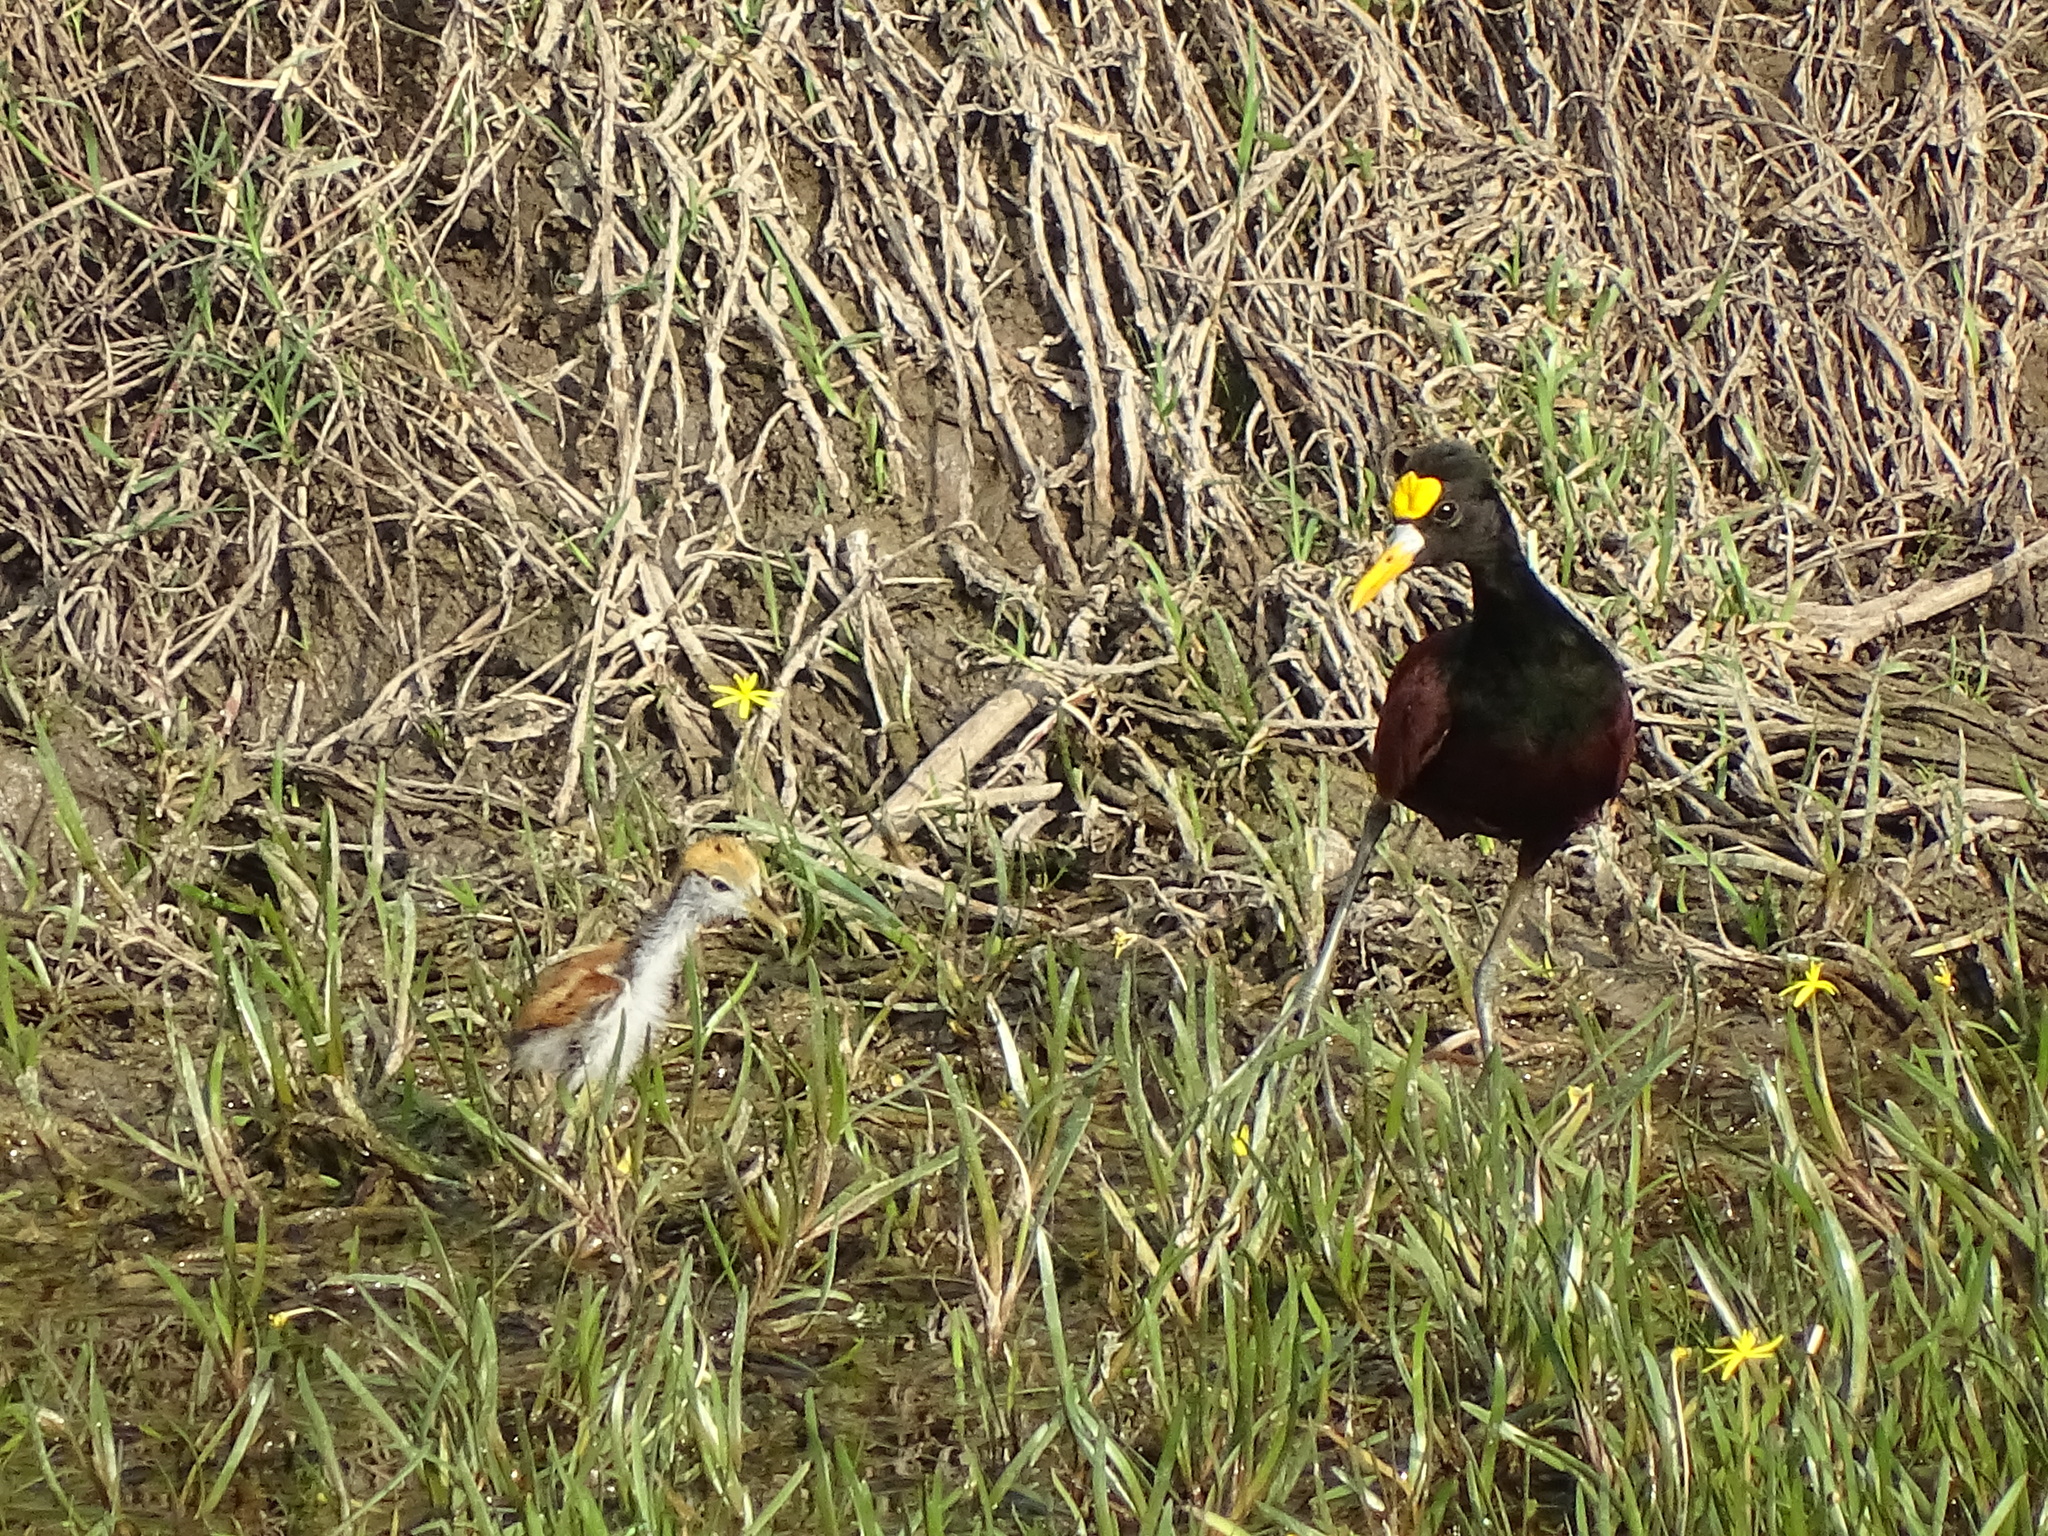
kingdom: Animalia
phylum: Chordata
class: Aves
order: Charadriiformes
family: Jacanidae
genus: Jacana
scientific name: Jacana spinosa
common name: Northern jacana
